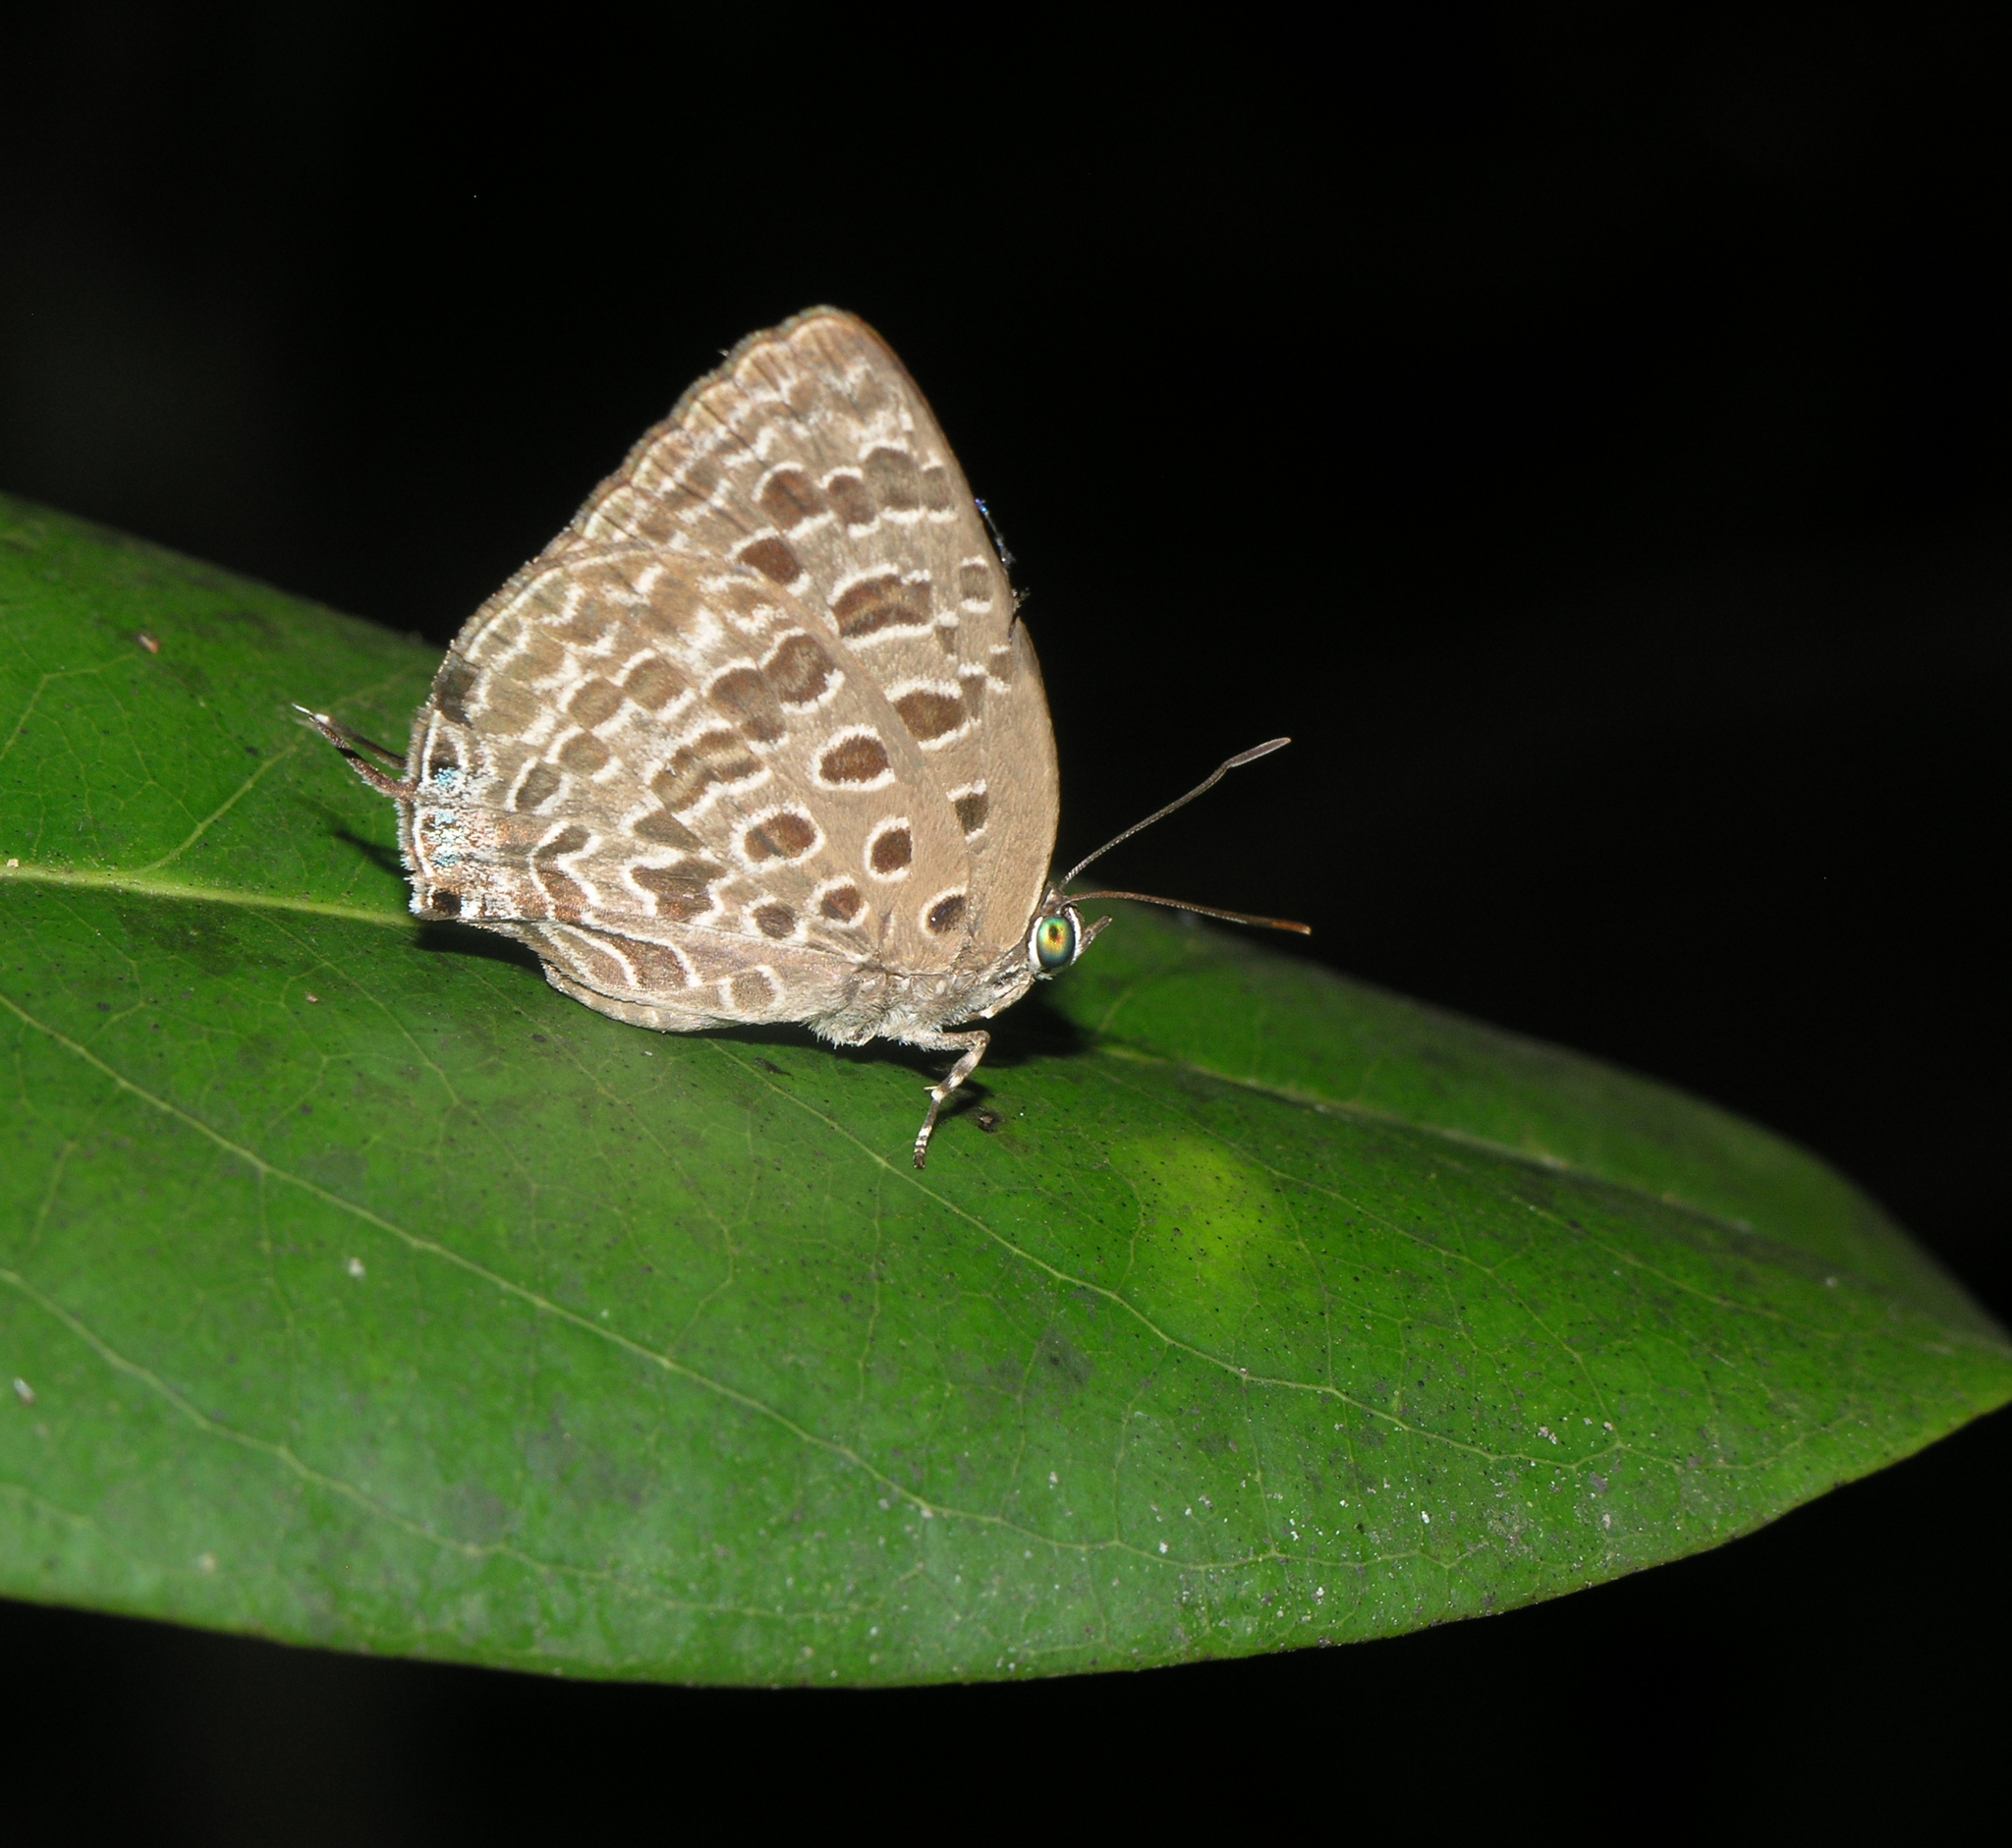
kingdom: Animalia
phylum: Arthropoda
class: Insecta
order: Lepidoptera
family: Lycaenidae
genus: Arhopala
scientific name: Arhopala alitaeus
